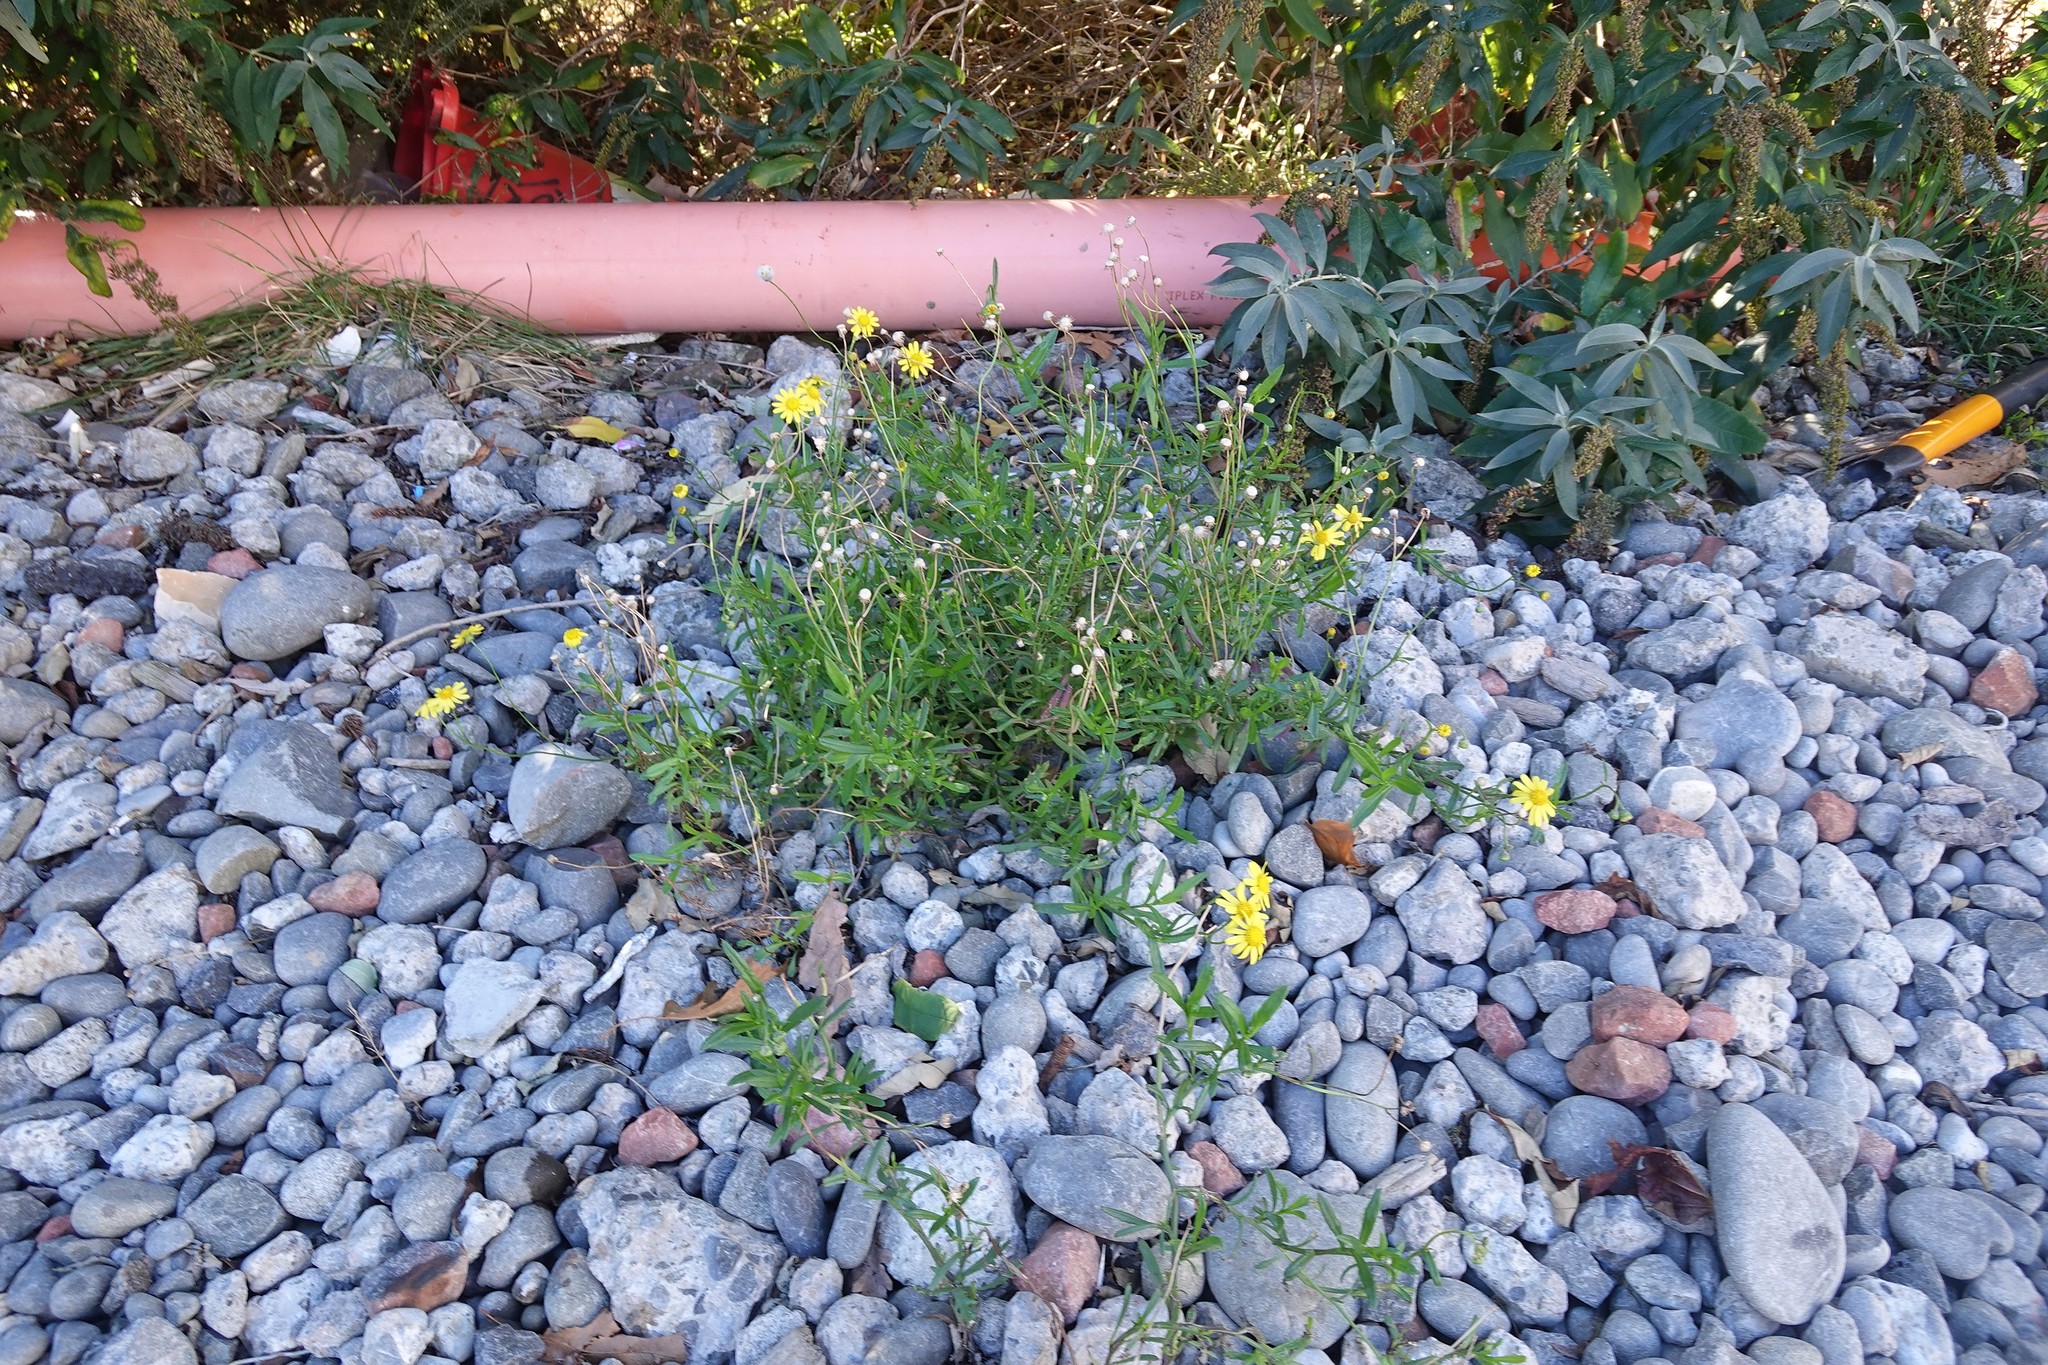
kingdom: Plantae
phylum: Tracheophyta
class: Magnoliopsida
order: Asterales
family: Asteraceae
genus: Senecio
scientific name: Senecio skirrhodon
